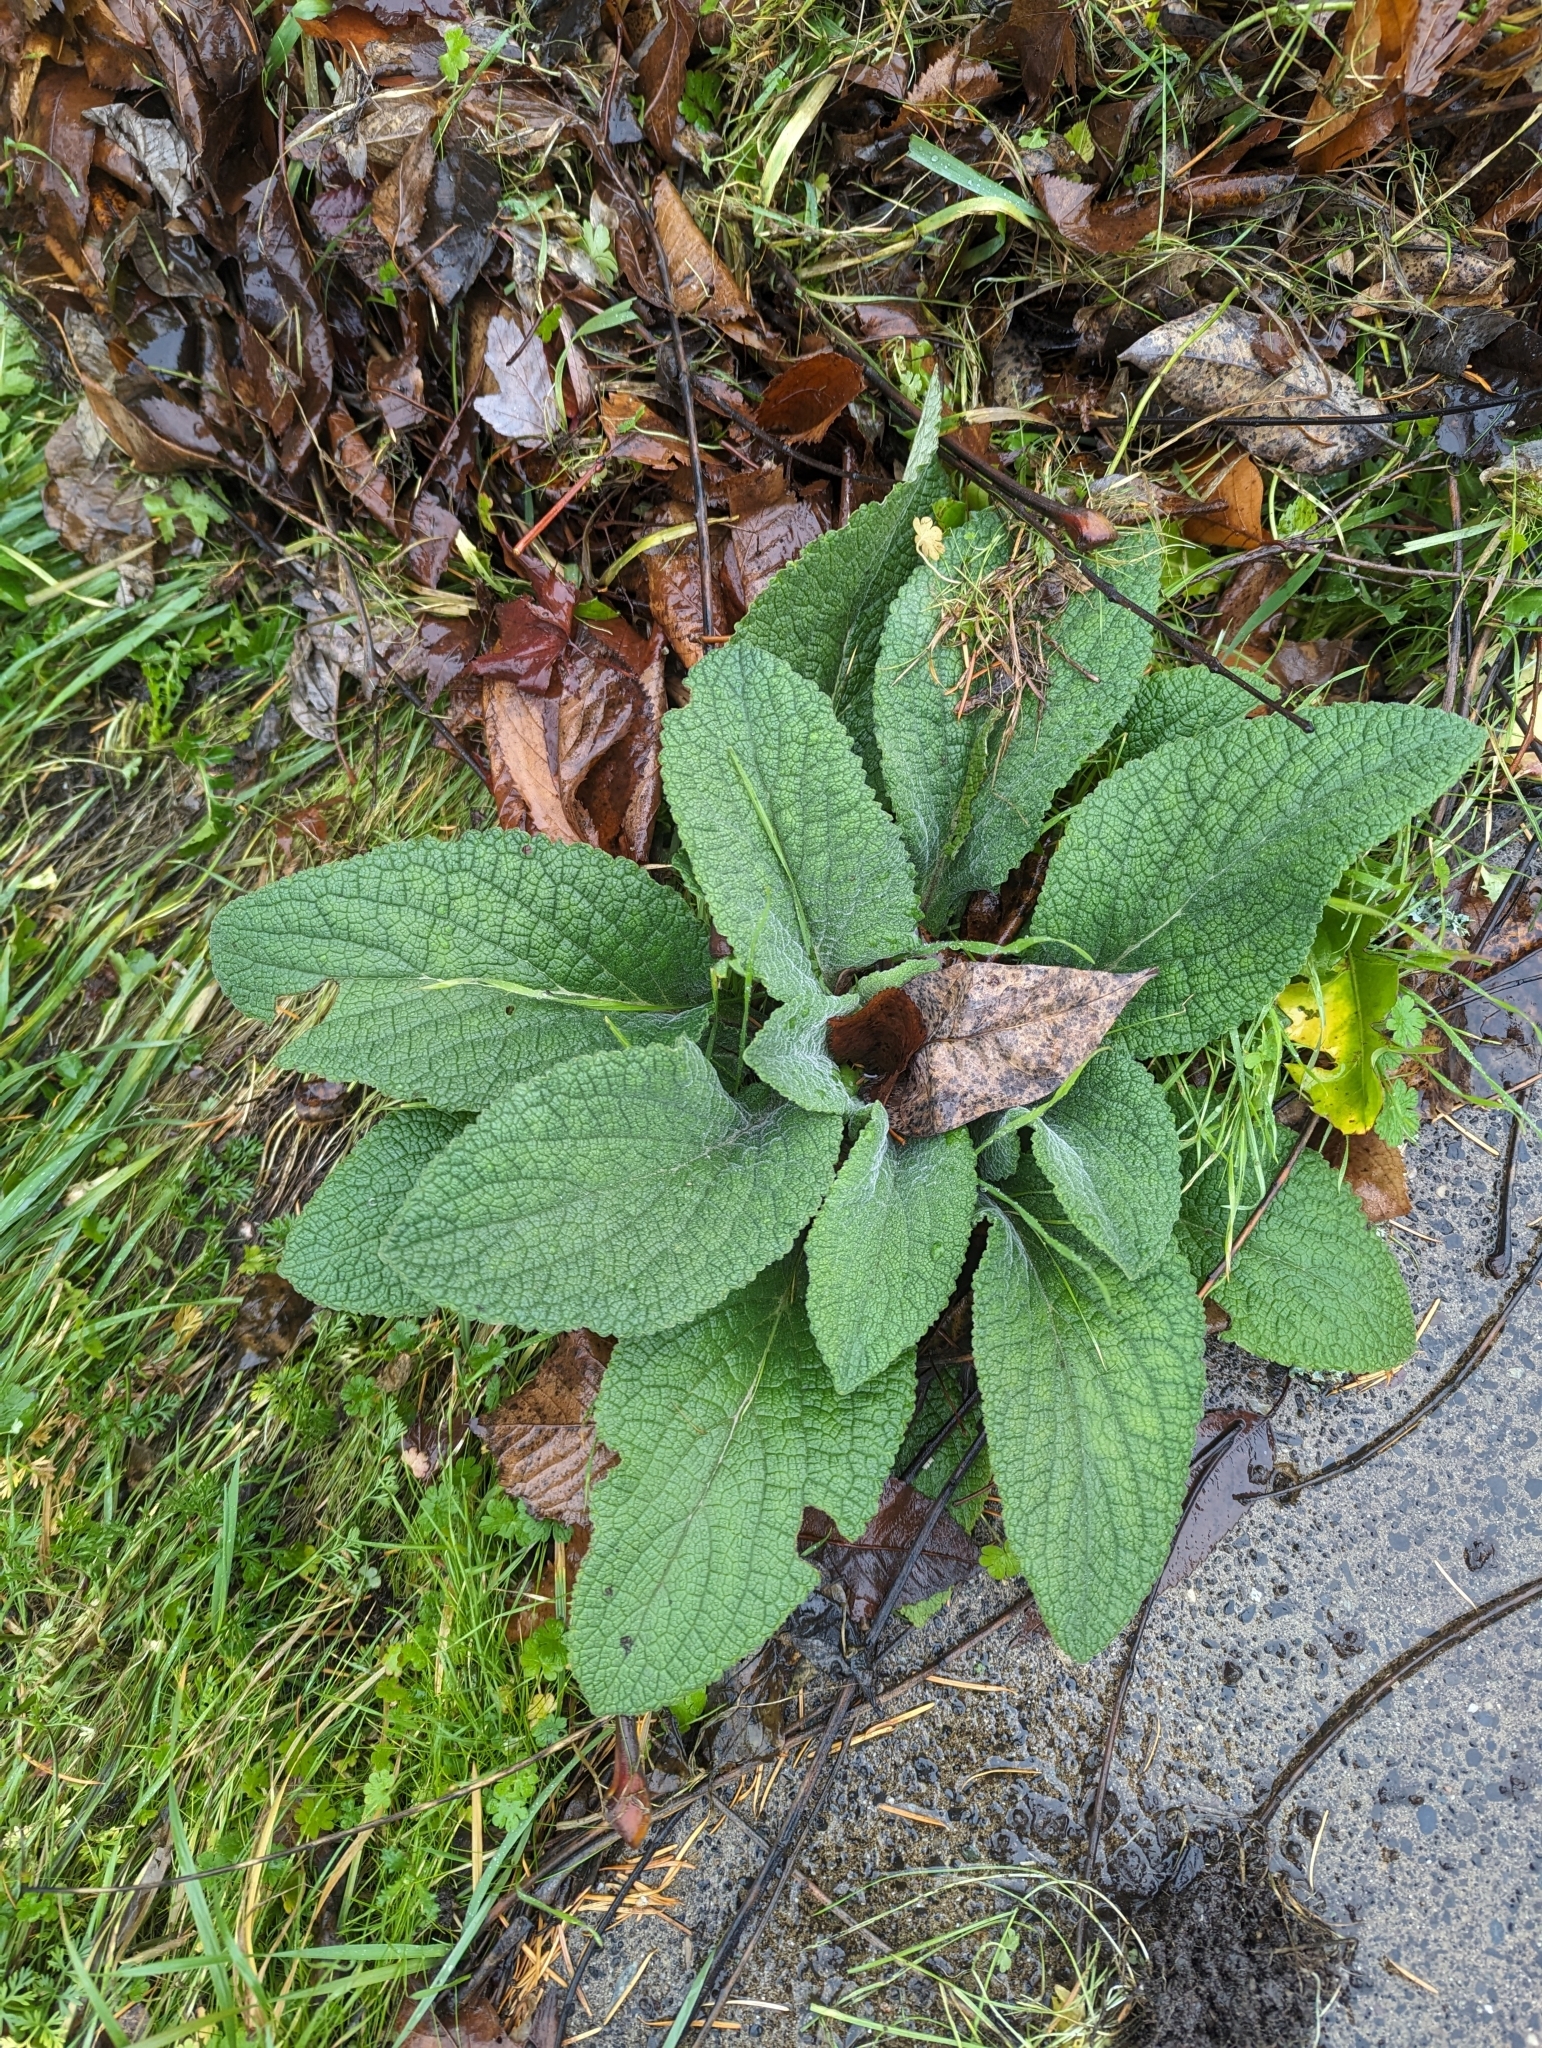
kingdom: Plantae
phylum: Tracheophyta
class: Magnoliopsida
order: Lamiales
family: Plantaginaceae
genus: Digitalis
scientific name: Digitalis purpurea
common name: Foxglove
